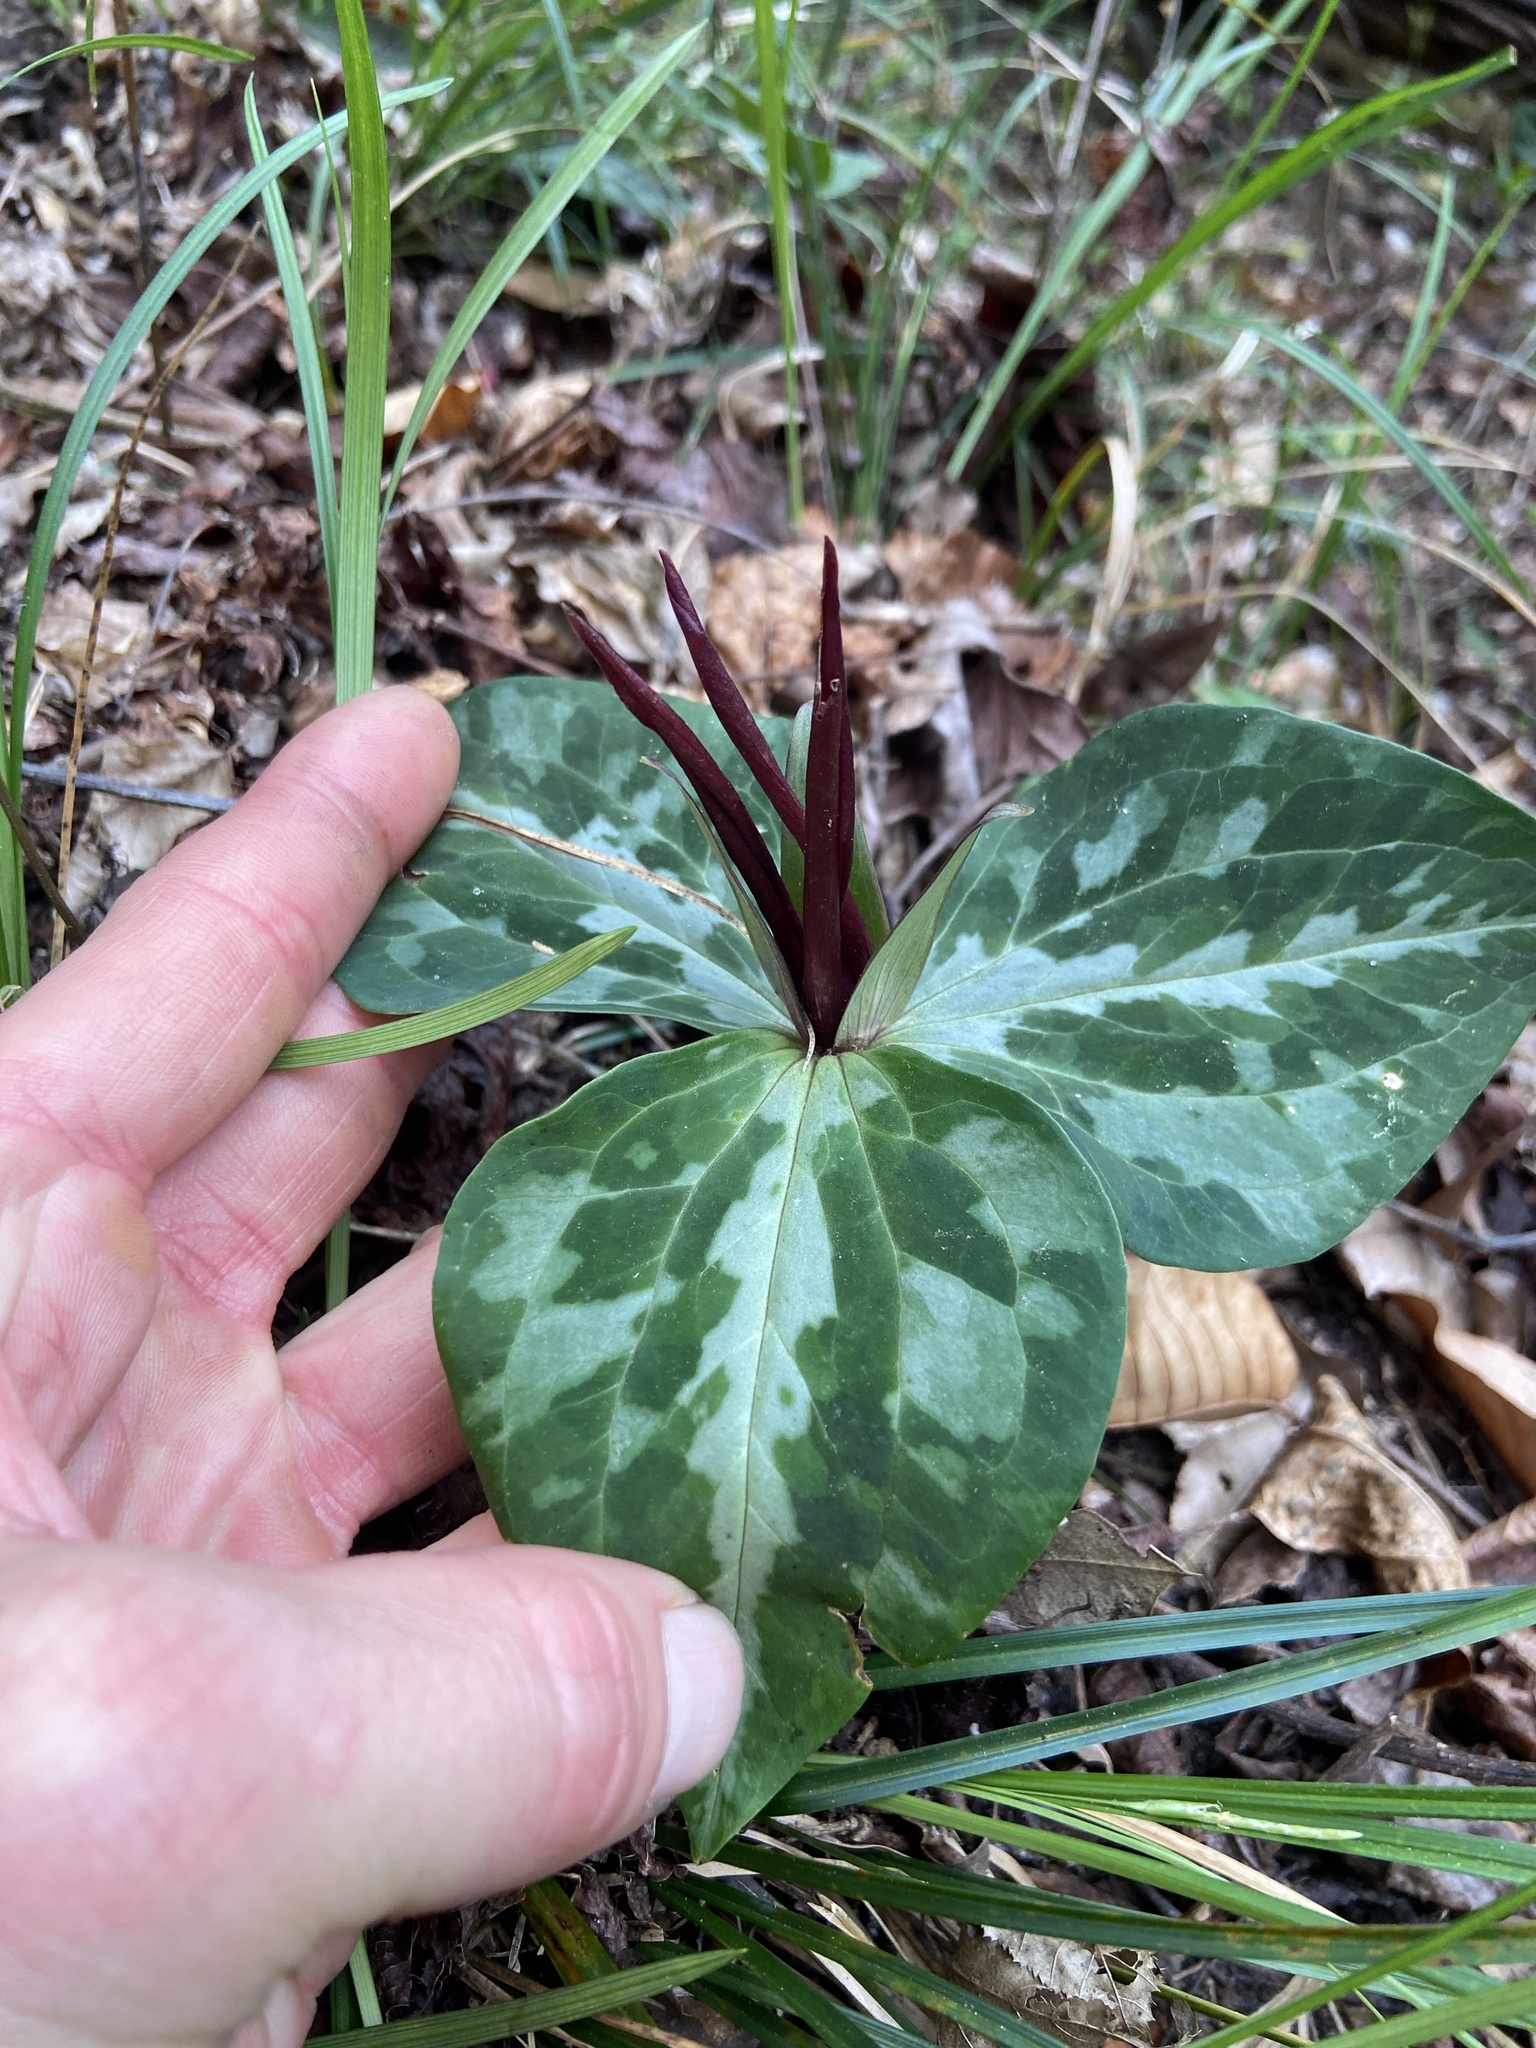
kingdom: Plantae
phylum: Tracheophyta
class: Liliopsida
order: Liliales
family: Melanthiaceae
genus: Trillium
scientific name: Trillium underwoodii
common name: Longbract wakerobin
